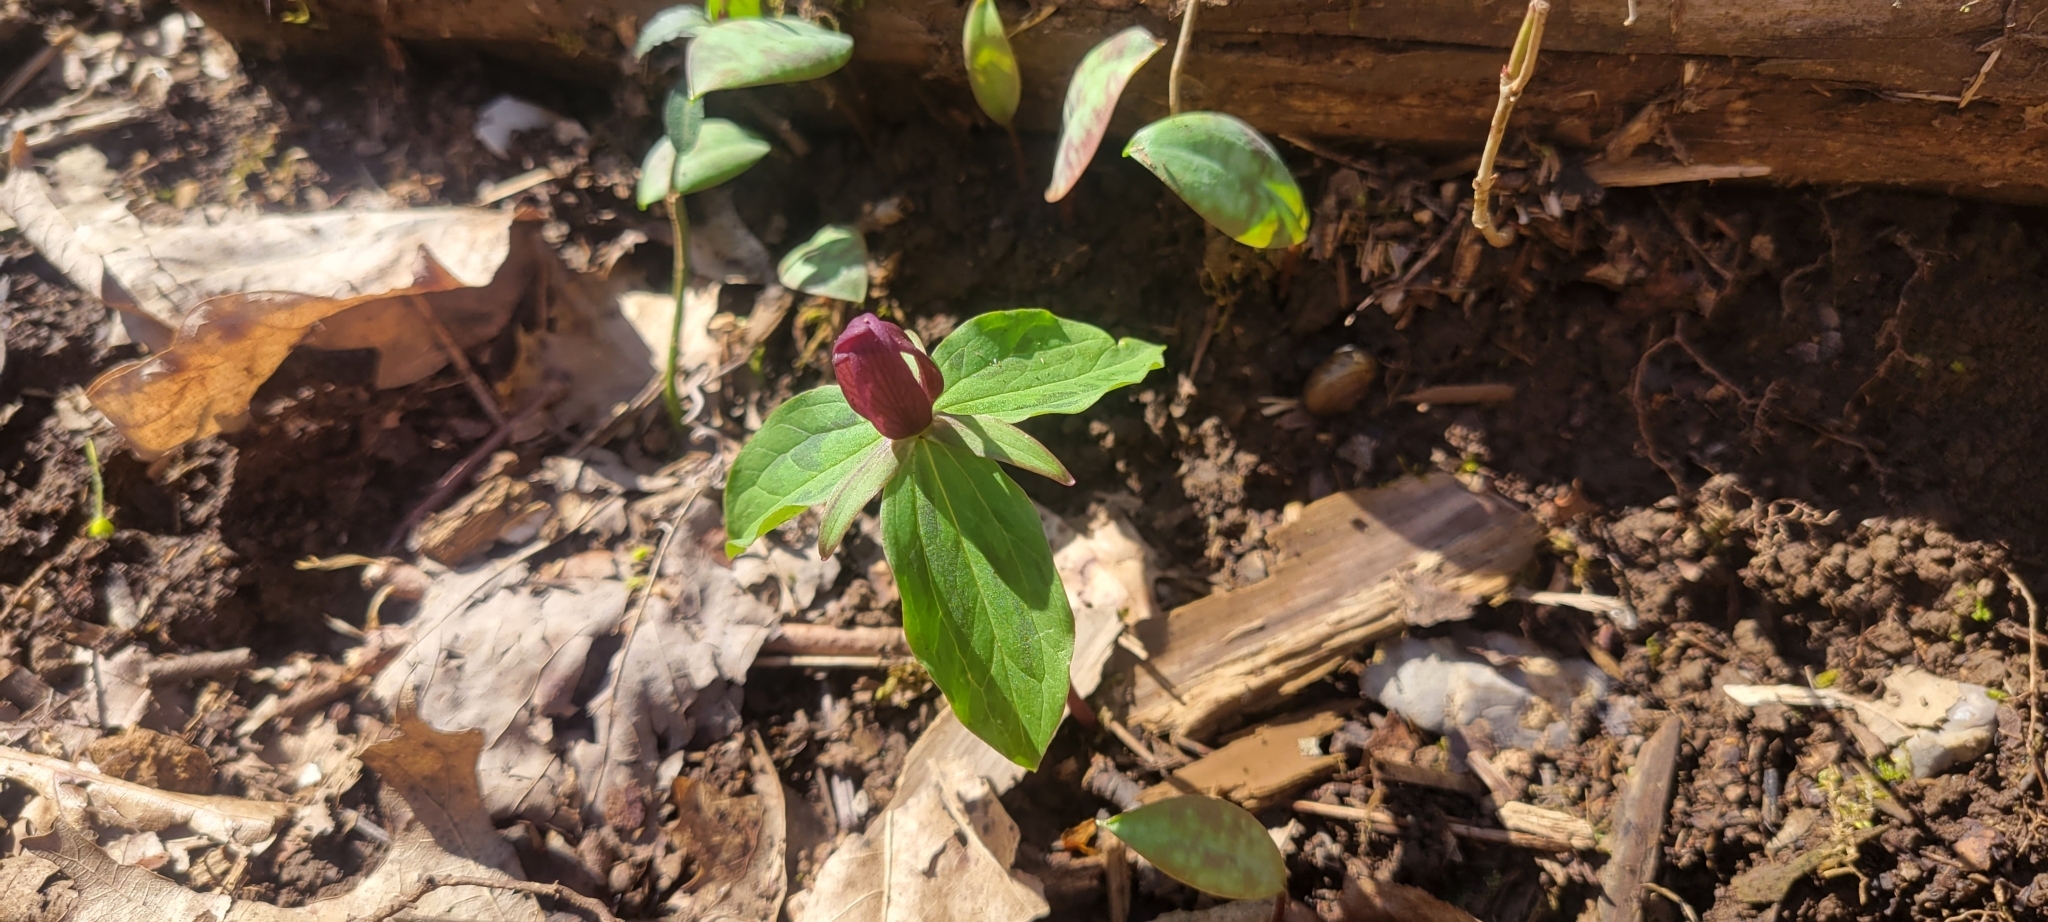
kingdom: Plantae
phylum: Tracheophyta
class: Liliopsida
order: Liliales
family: Melanthiaceae
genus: Trillium
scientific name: Trillium sessile
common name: Sessile trillium
